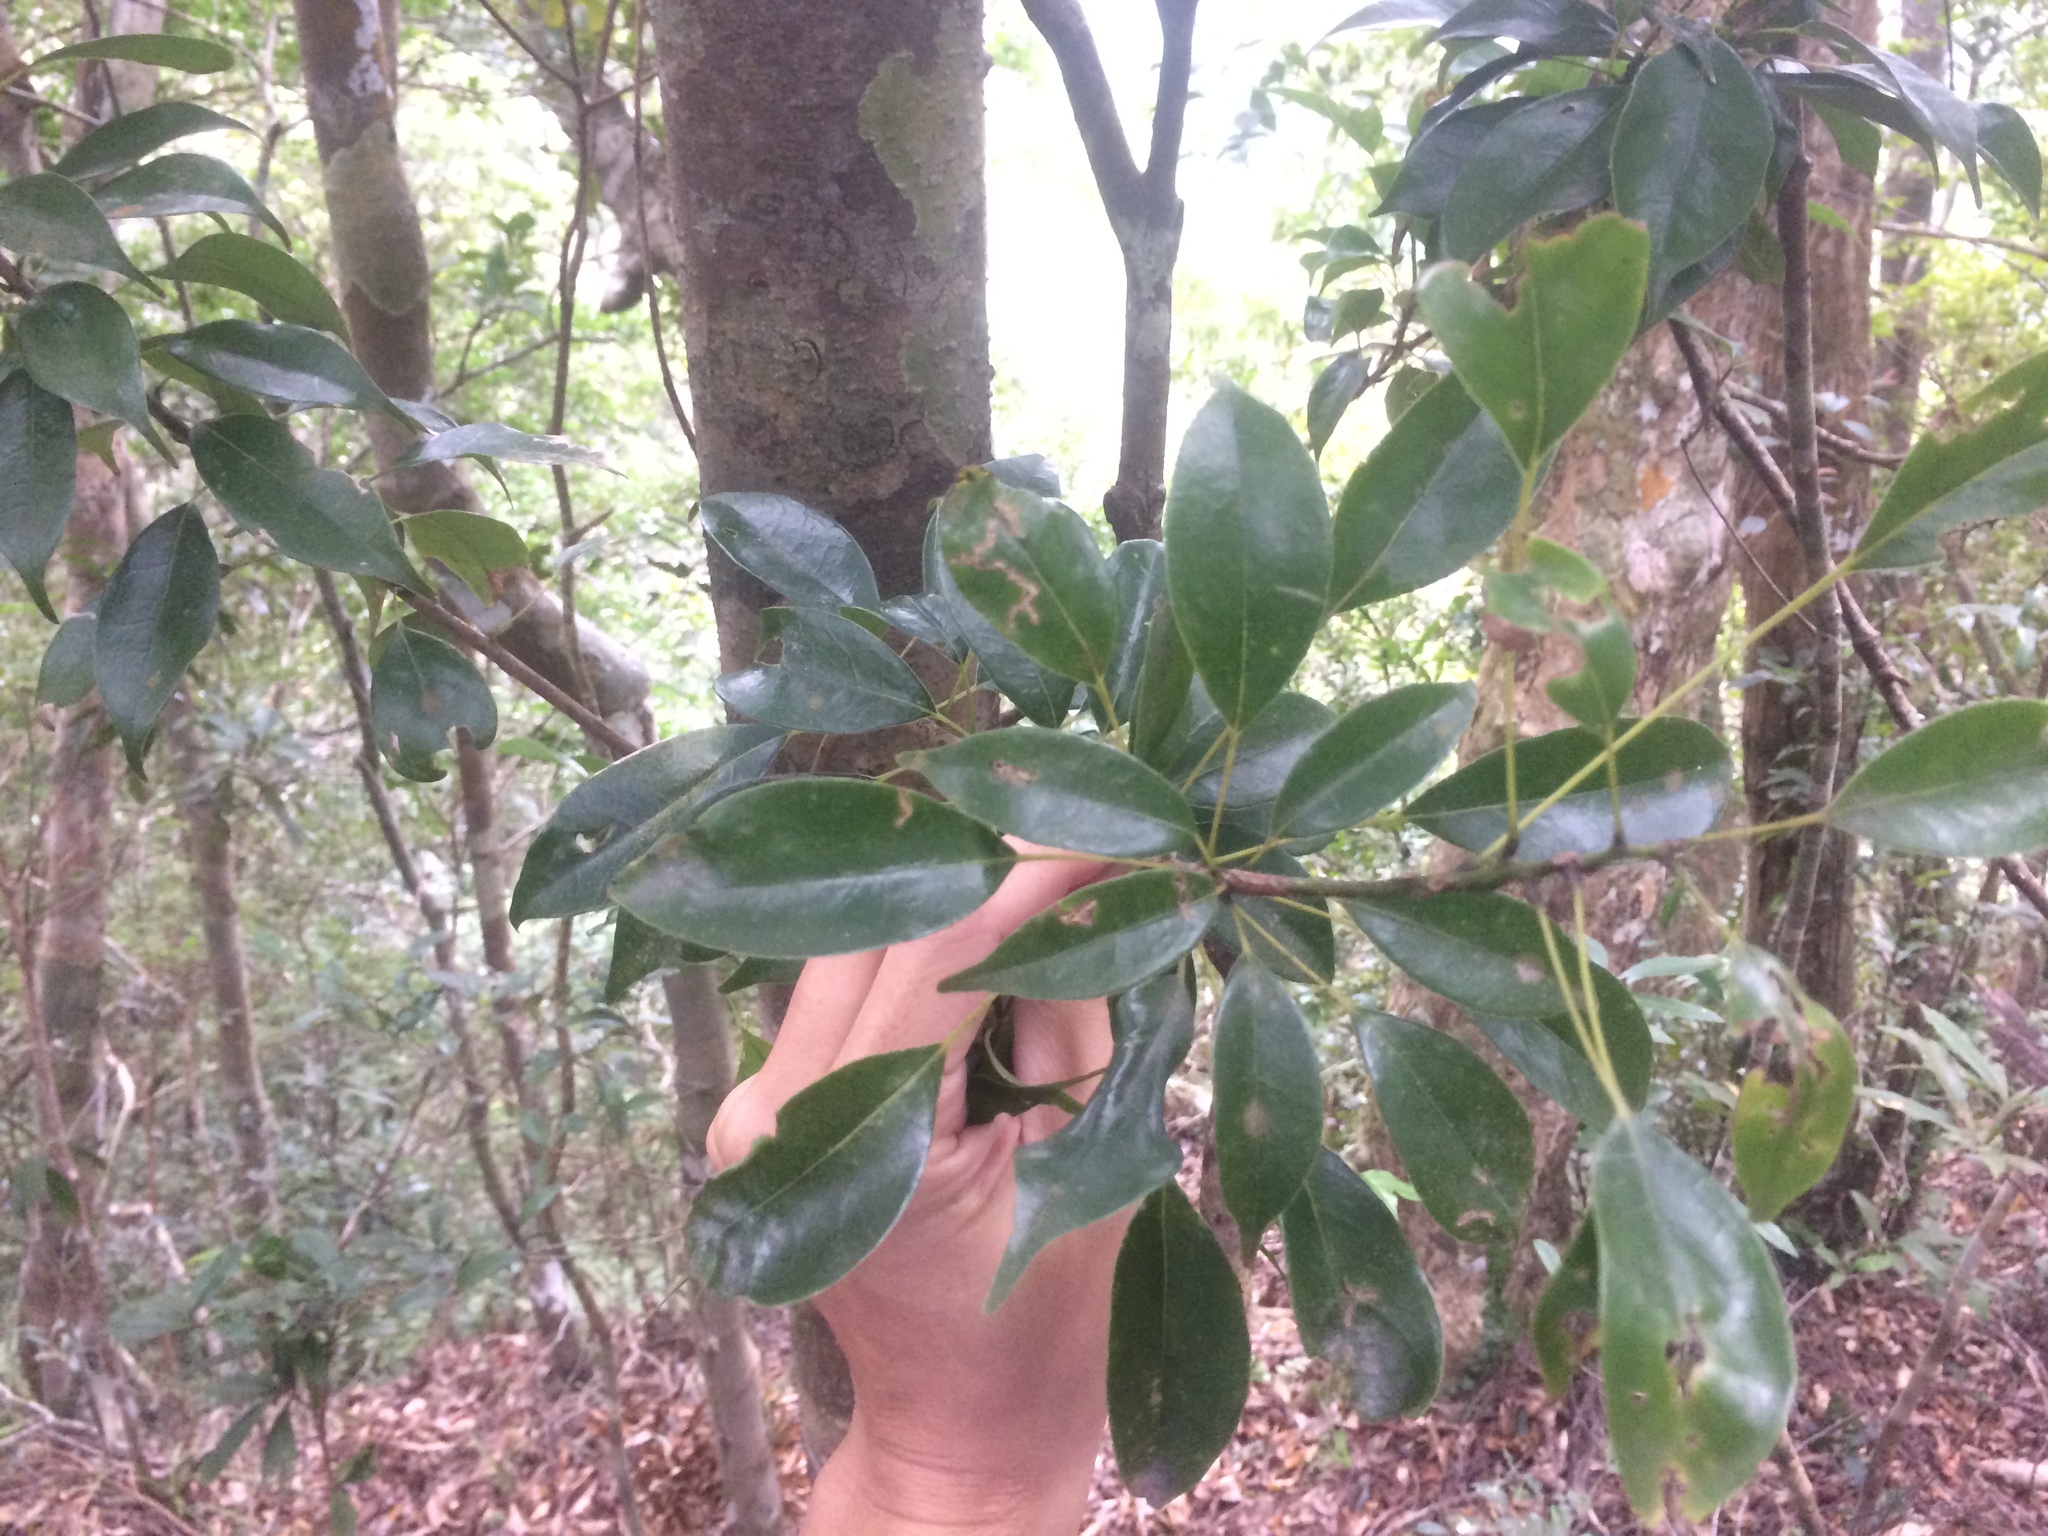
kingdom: Plantae
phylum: Tracheophyta
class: Magnoliopsida
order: Proteales
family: Sabiaceae
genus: Meliosma
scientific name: Meliosma squamulata
